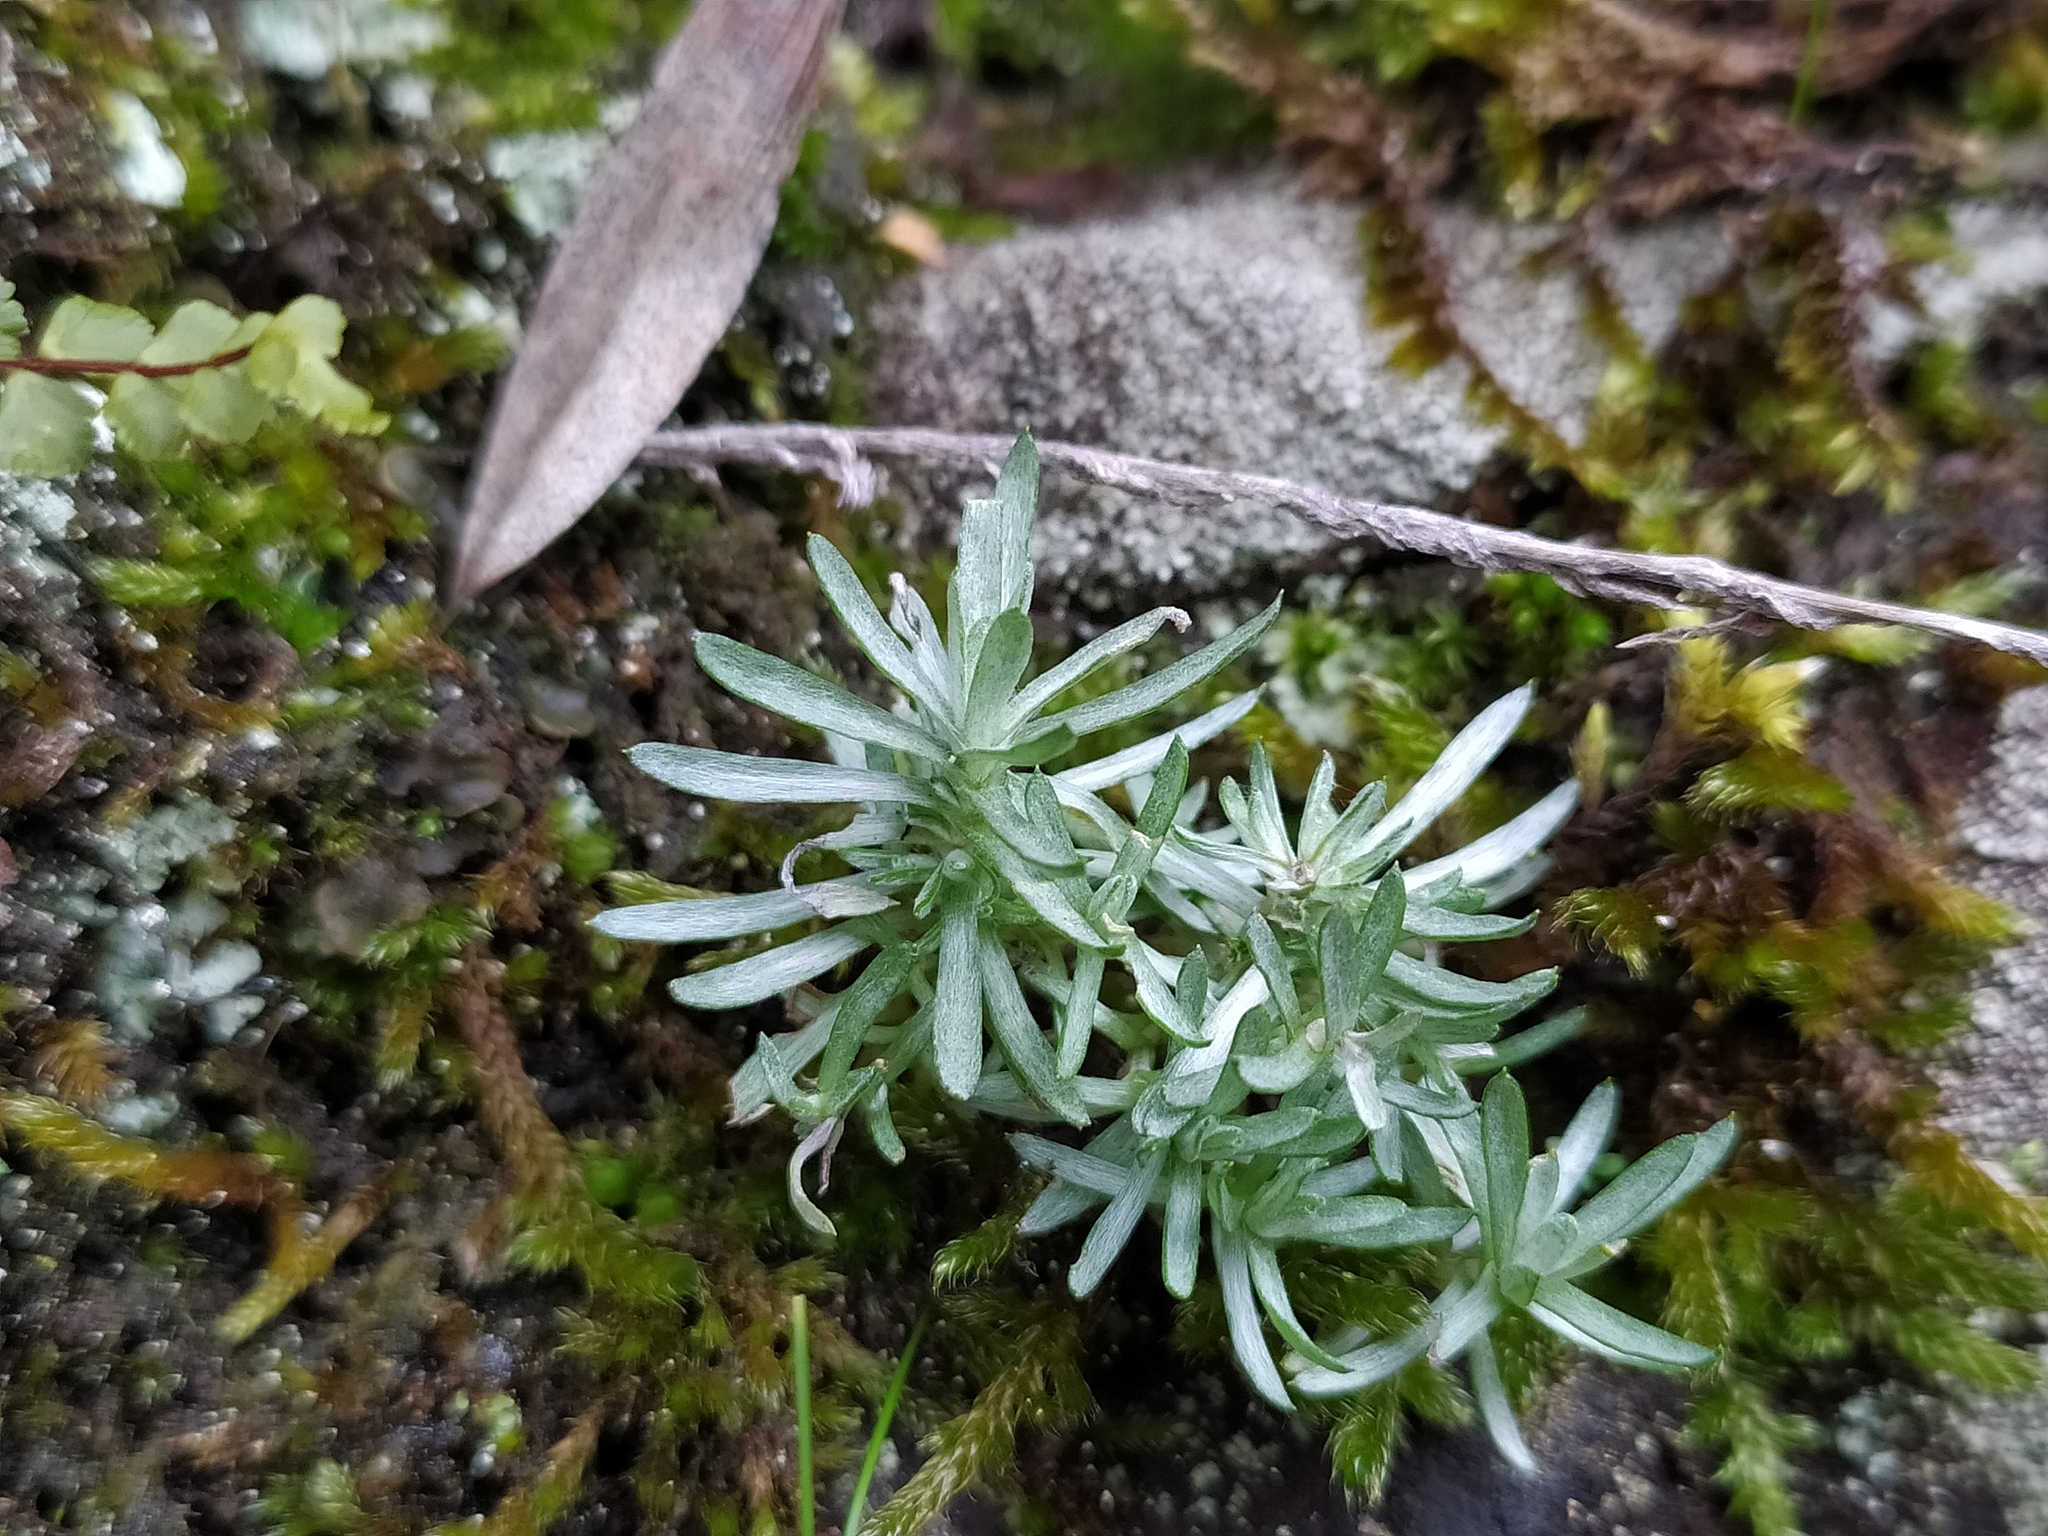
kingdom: Plantae
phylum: Tracheophyta
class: Magnoliopsida
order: Asterales
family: Asteraceae
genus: Logfia
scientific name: Logfia minima
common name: Little cottonrose
